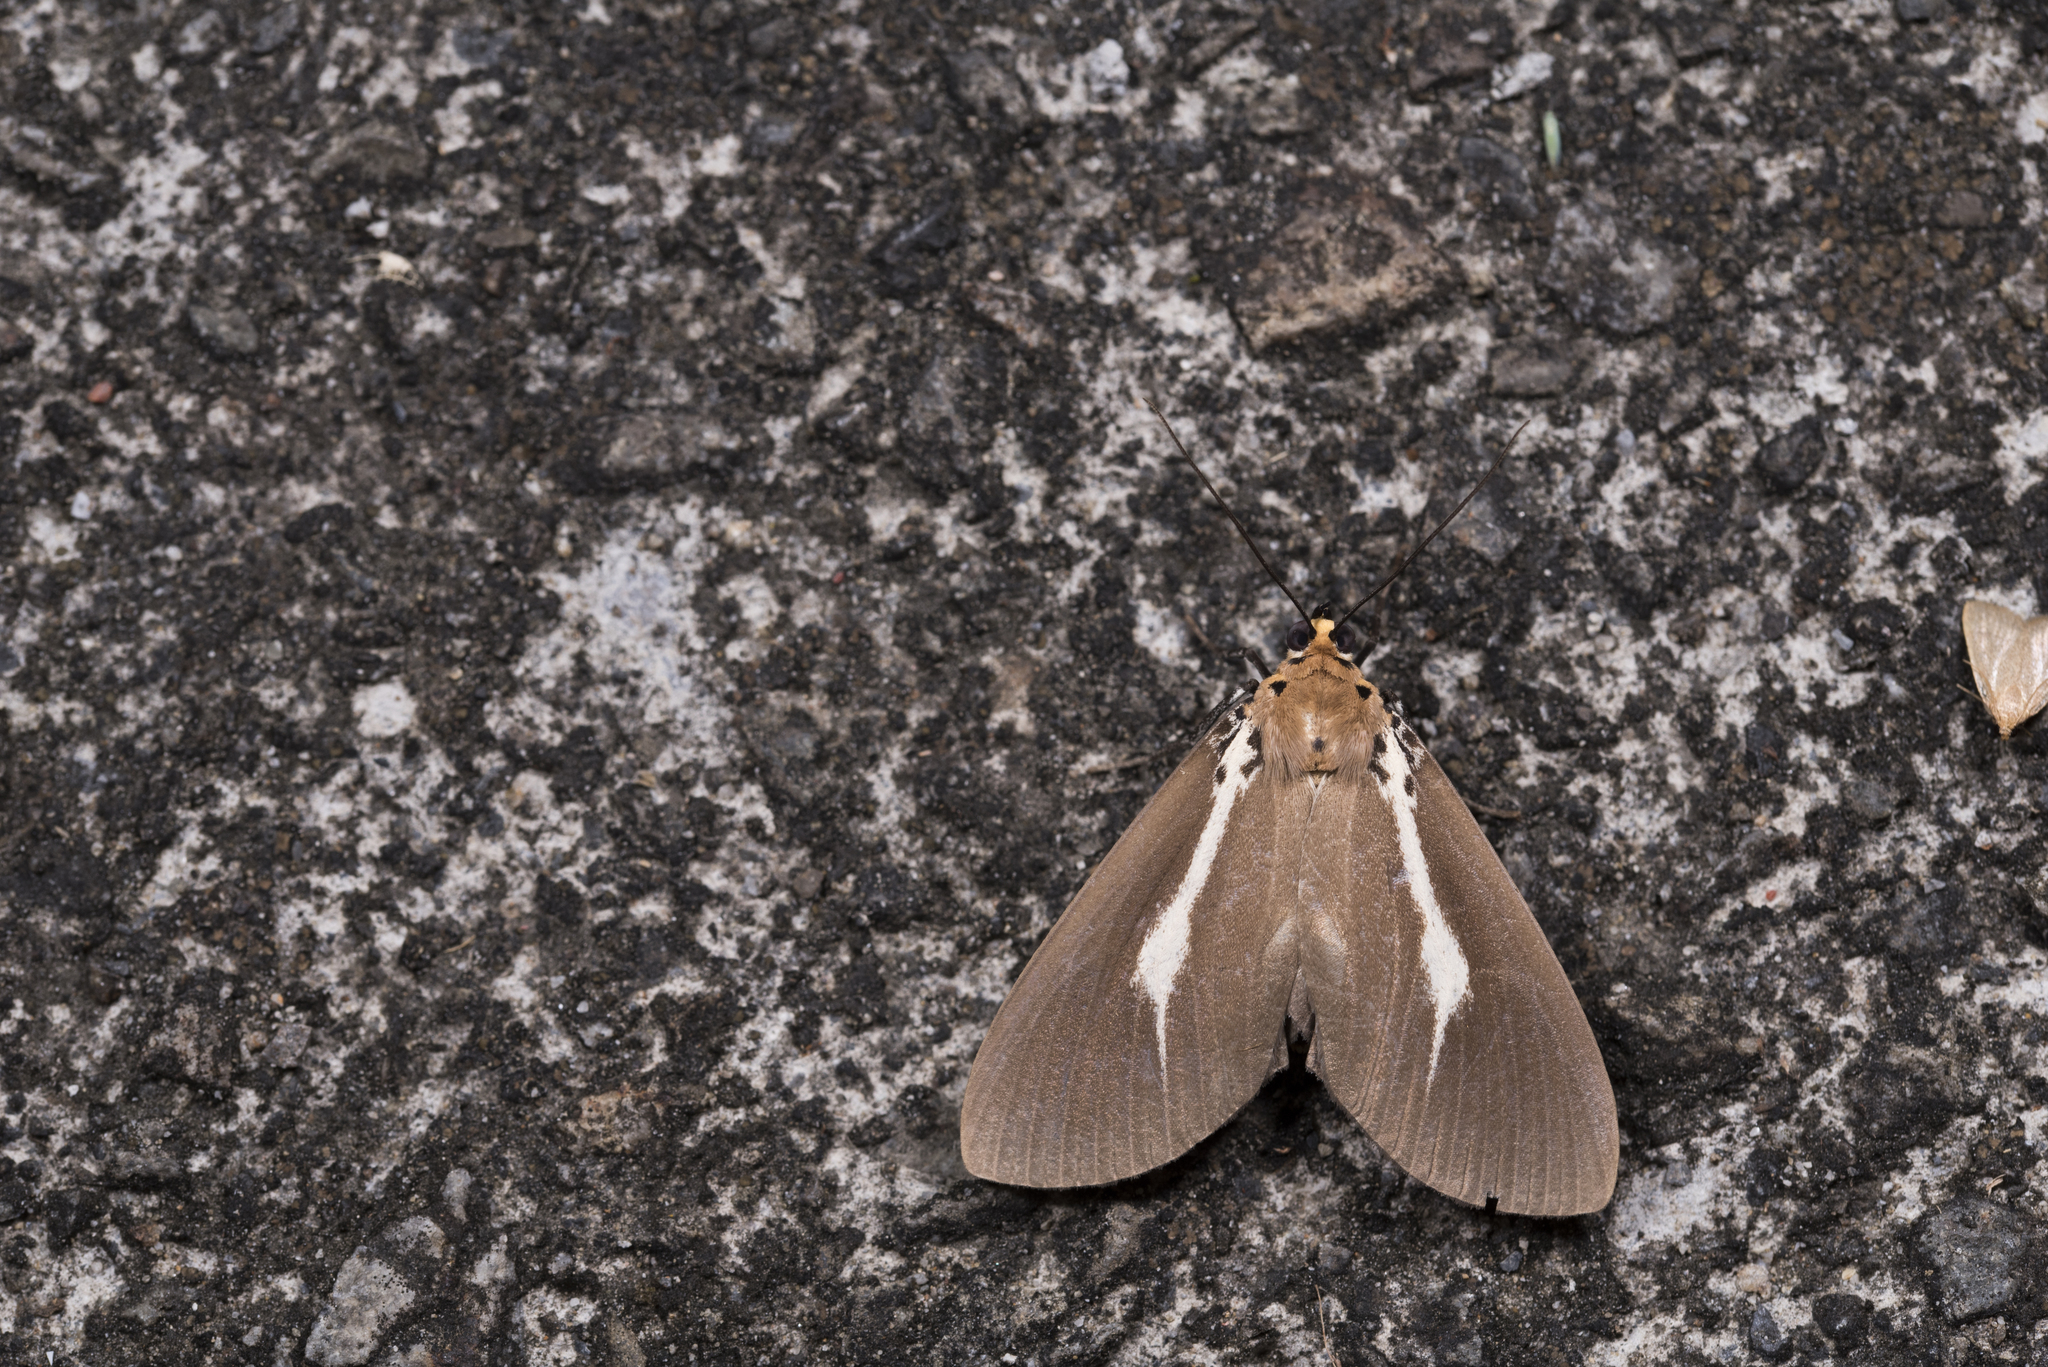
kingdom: Animalia
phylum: Arthropoda
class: Insecta
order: Lepidoptera
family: Erebidae
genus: Asota
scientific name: Asota heliconia
